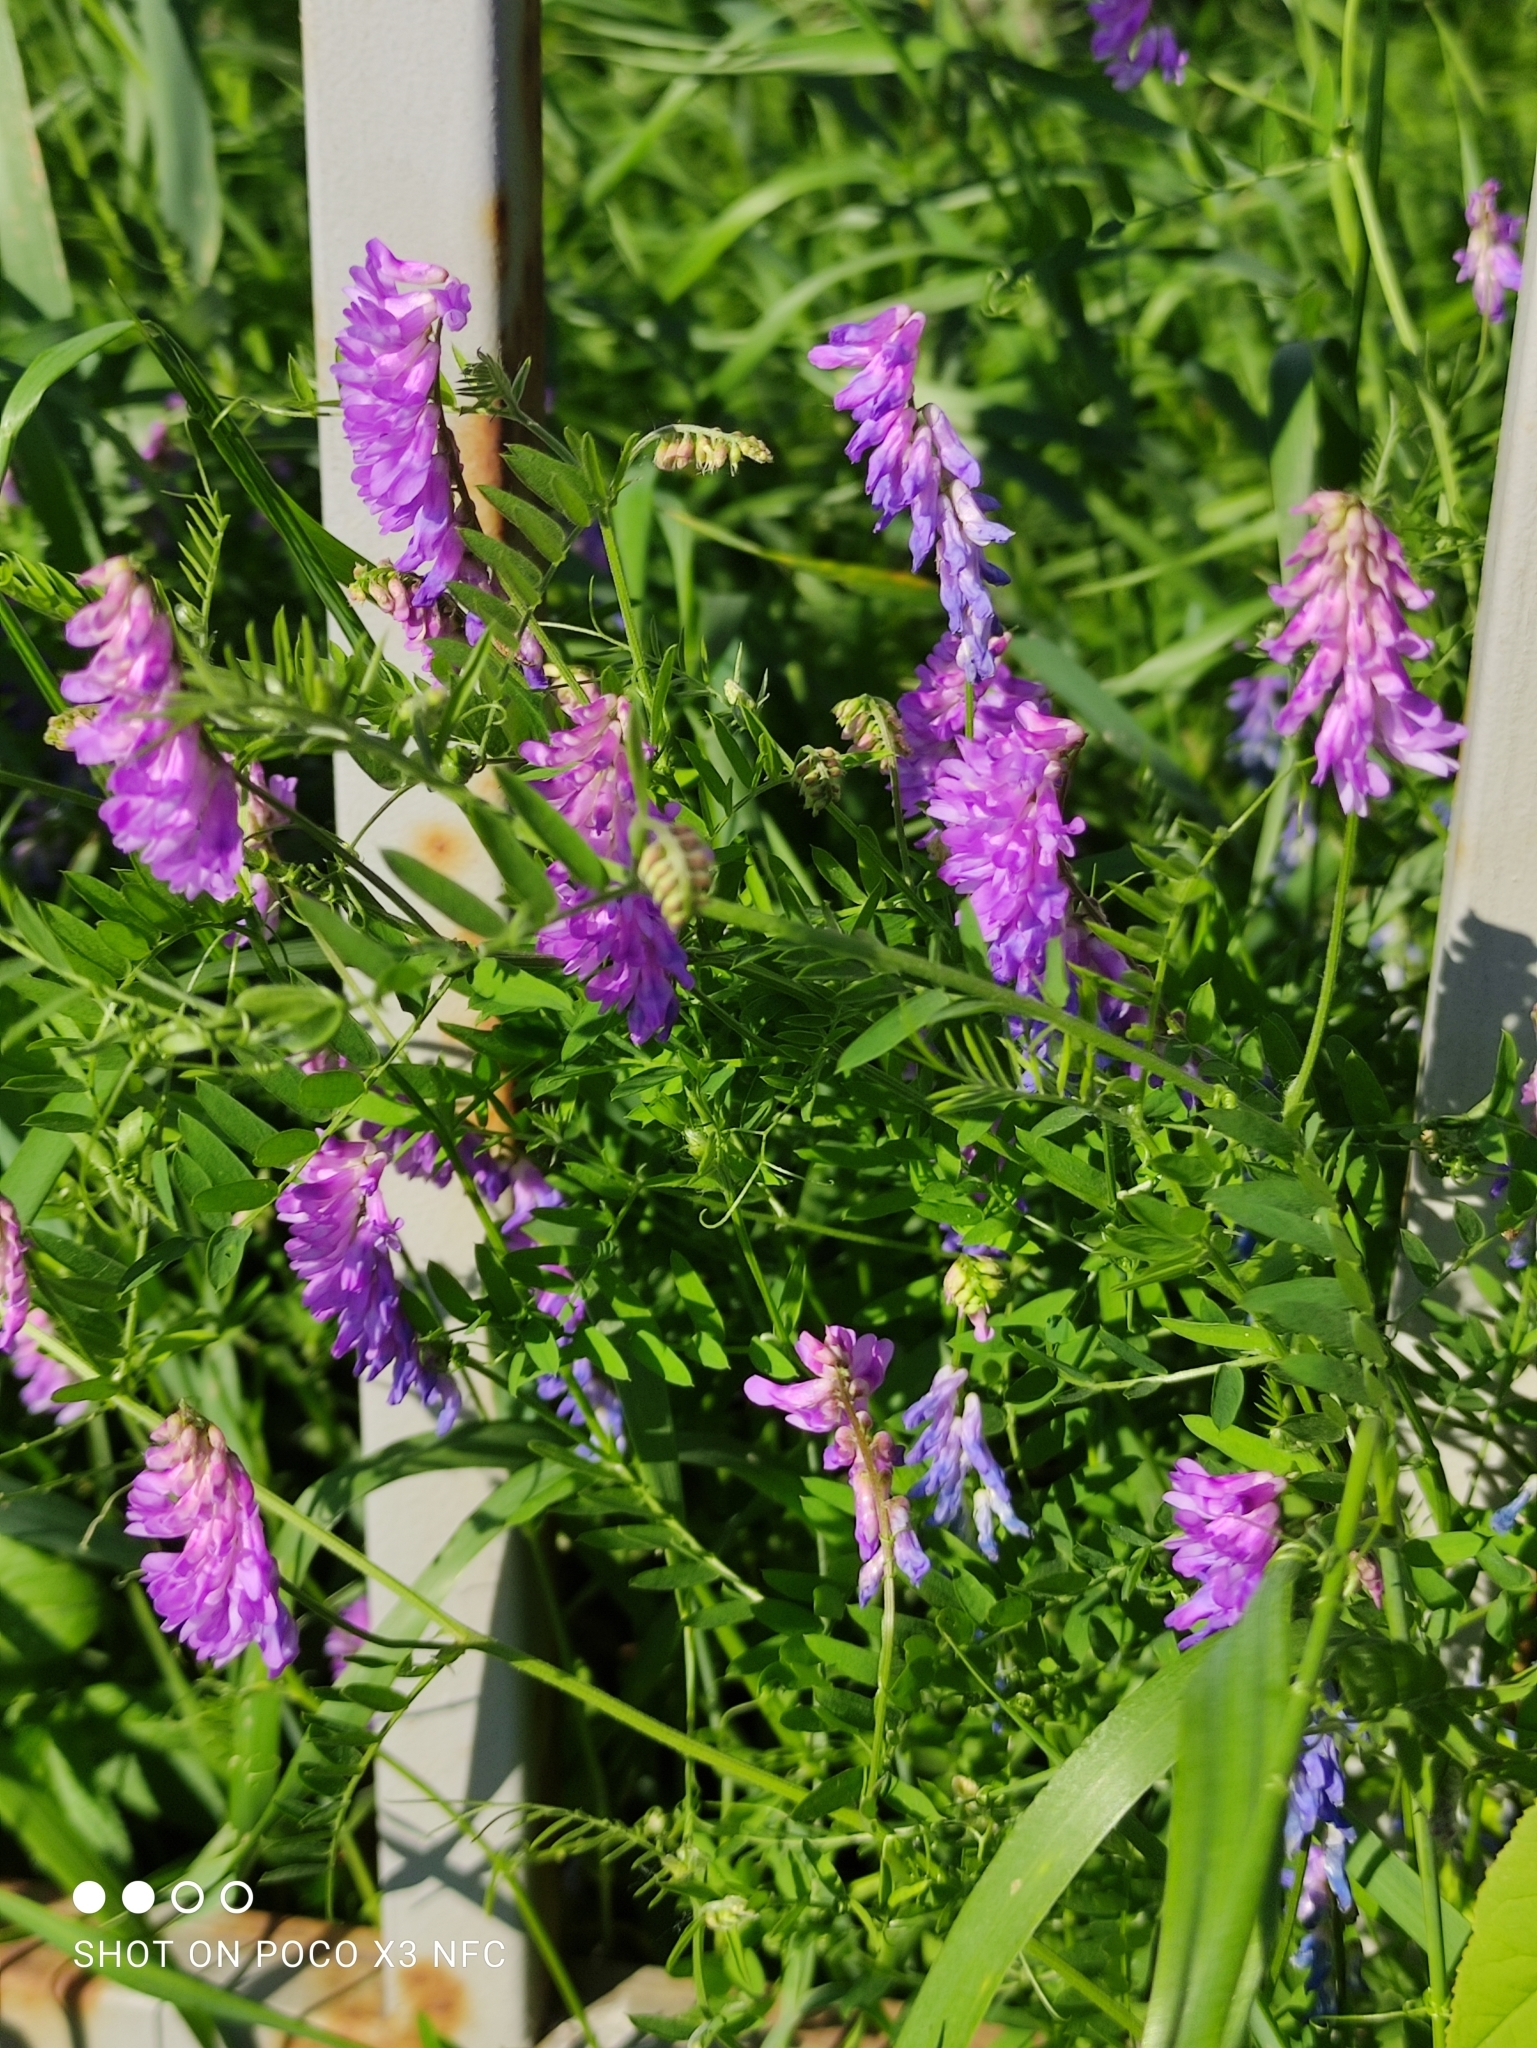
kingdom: Plantae
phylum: Tracheophyta
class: Magnoliopsida
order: Fabales
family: Fabaceae
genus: Vicia
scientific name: Vicia cracca
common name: Bird vetch
